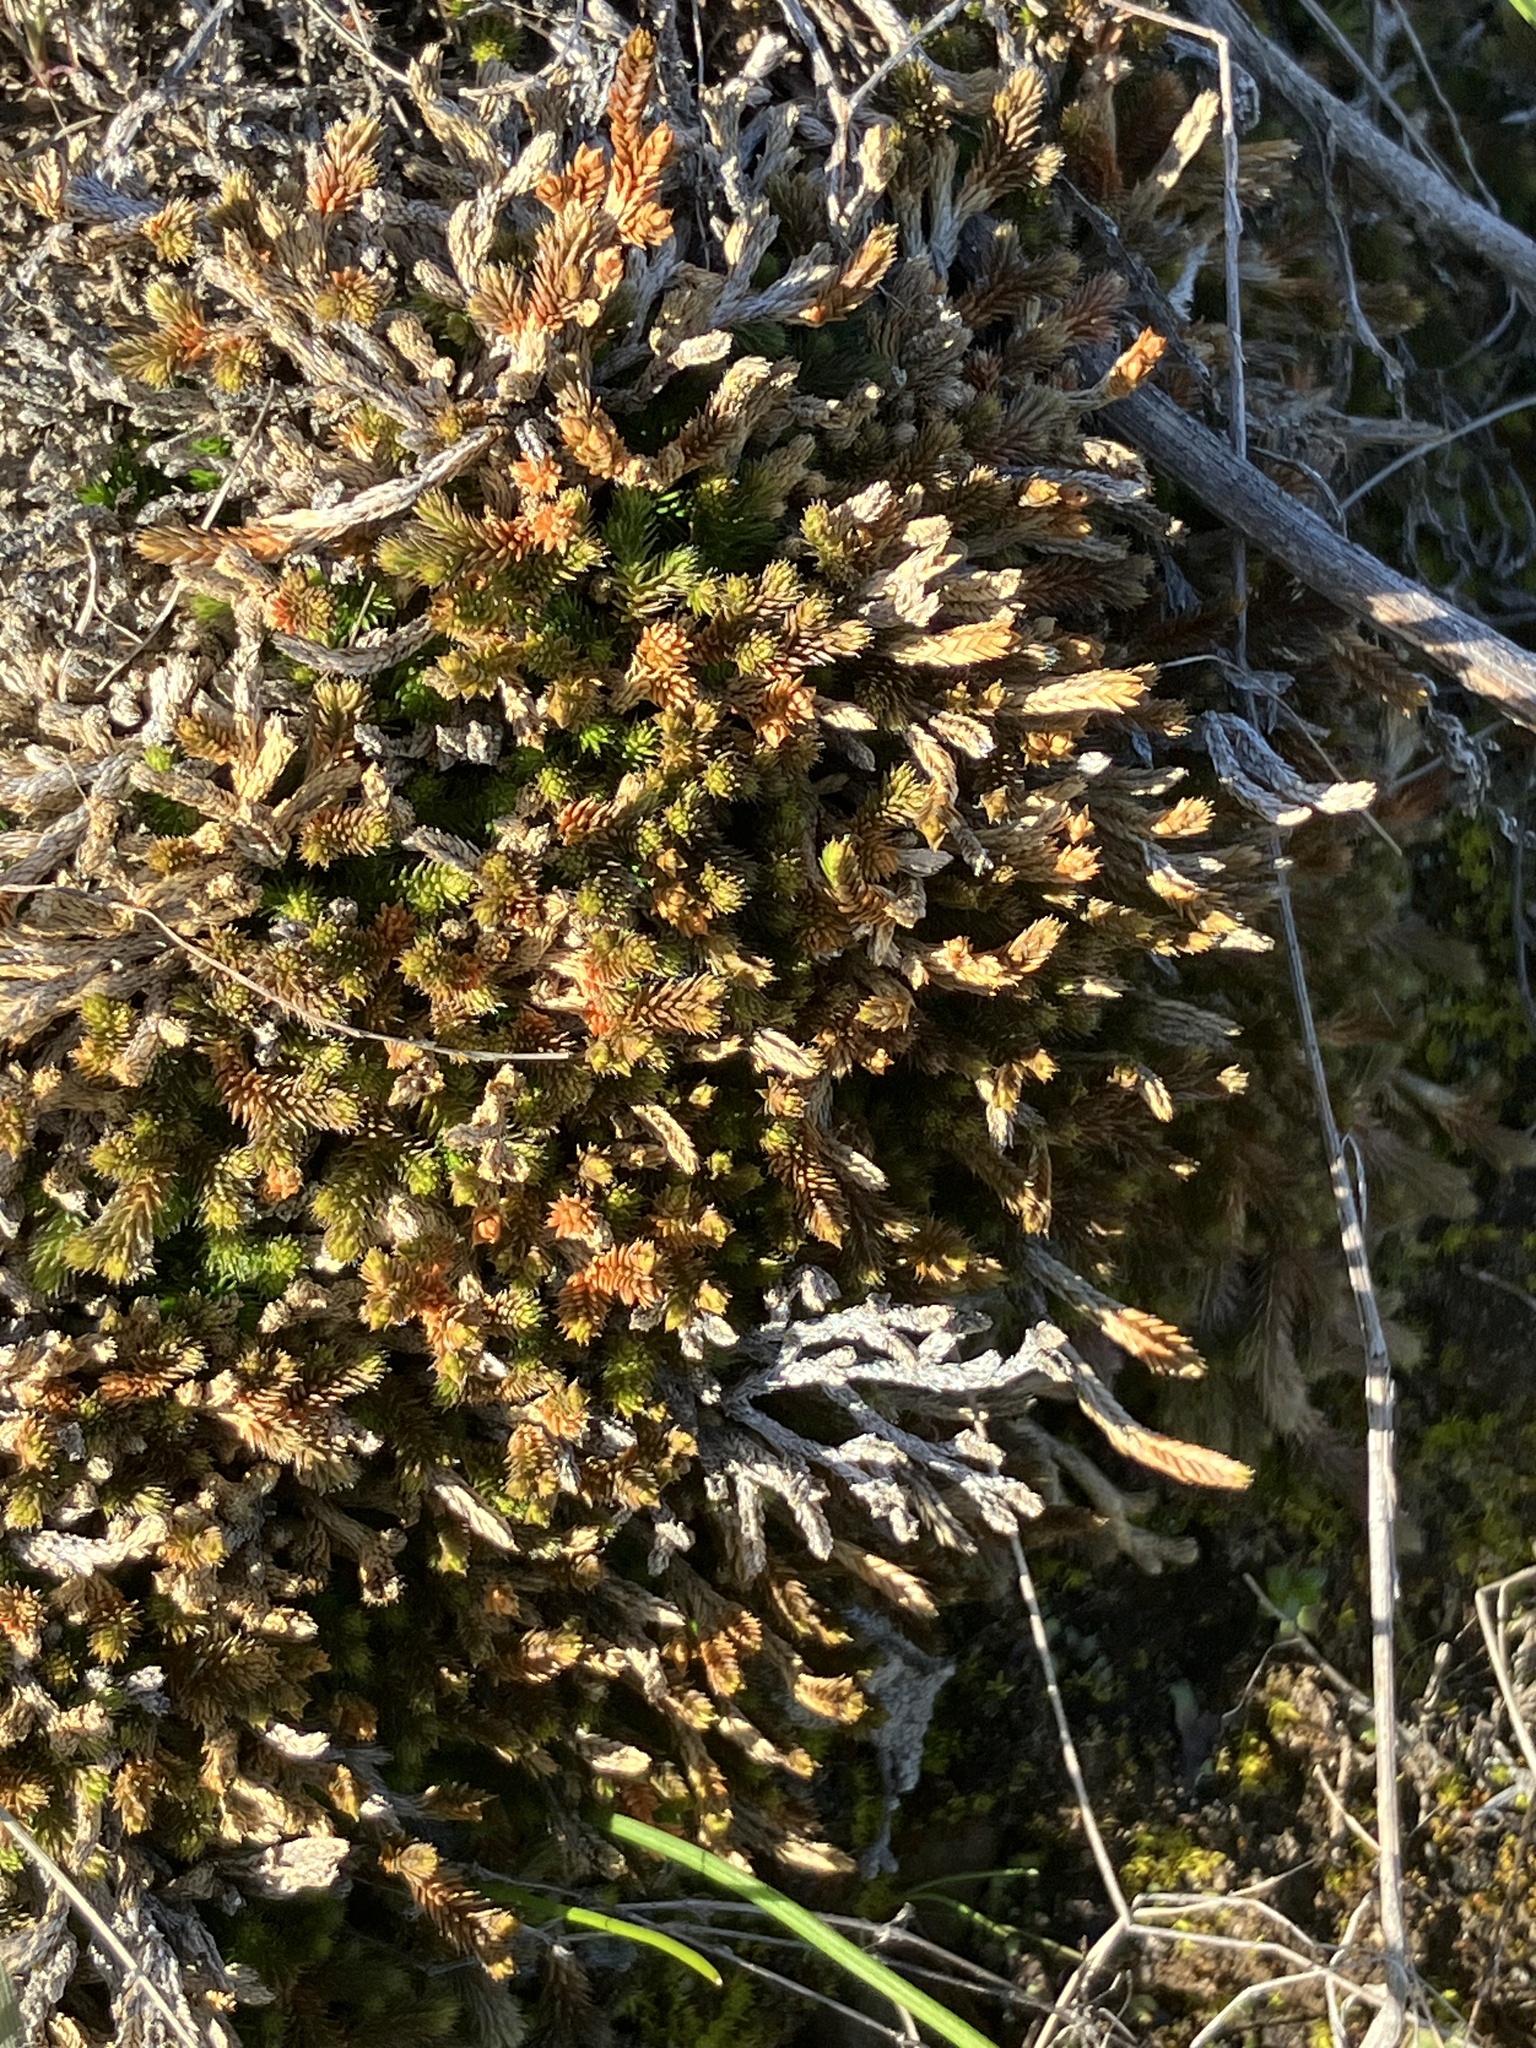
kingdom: Plantae
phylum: Tracheophyta
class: Lycopodiopsida
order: Selaginellales
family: Selaginellaceae
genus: Selaginella
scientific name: Selaginella wallacei
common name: Wallace's selaginella
